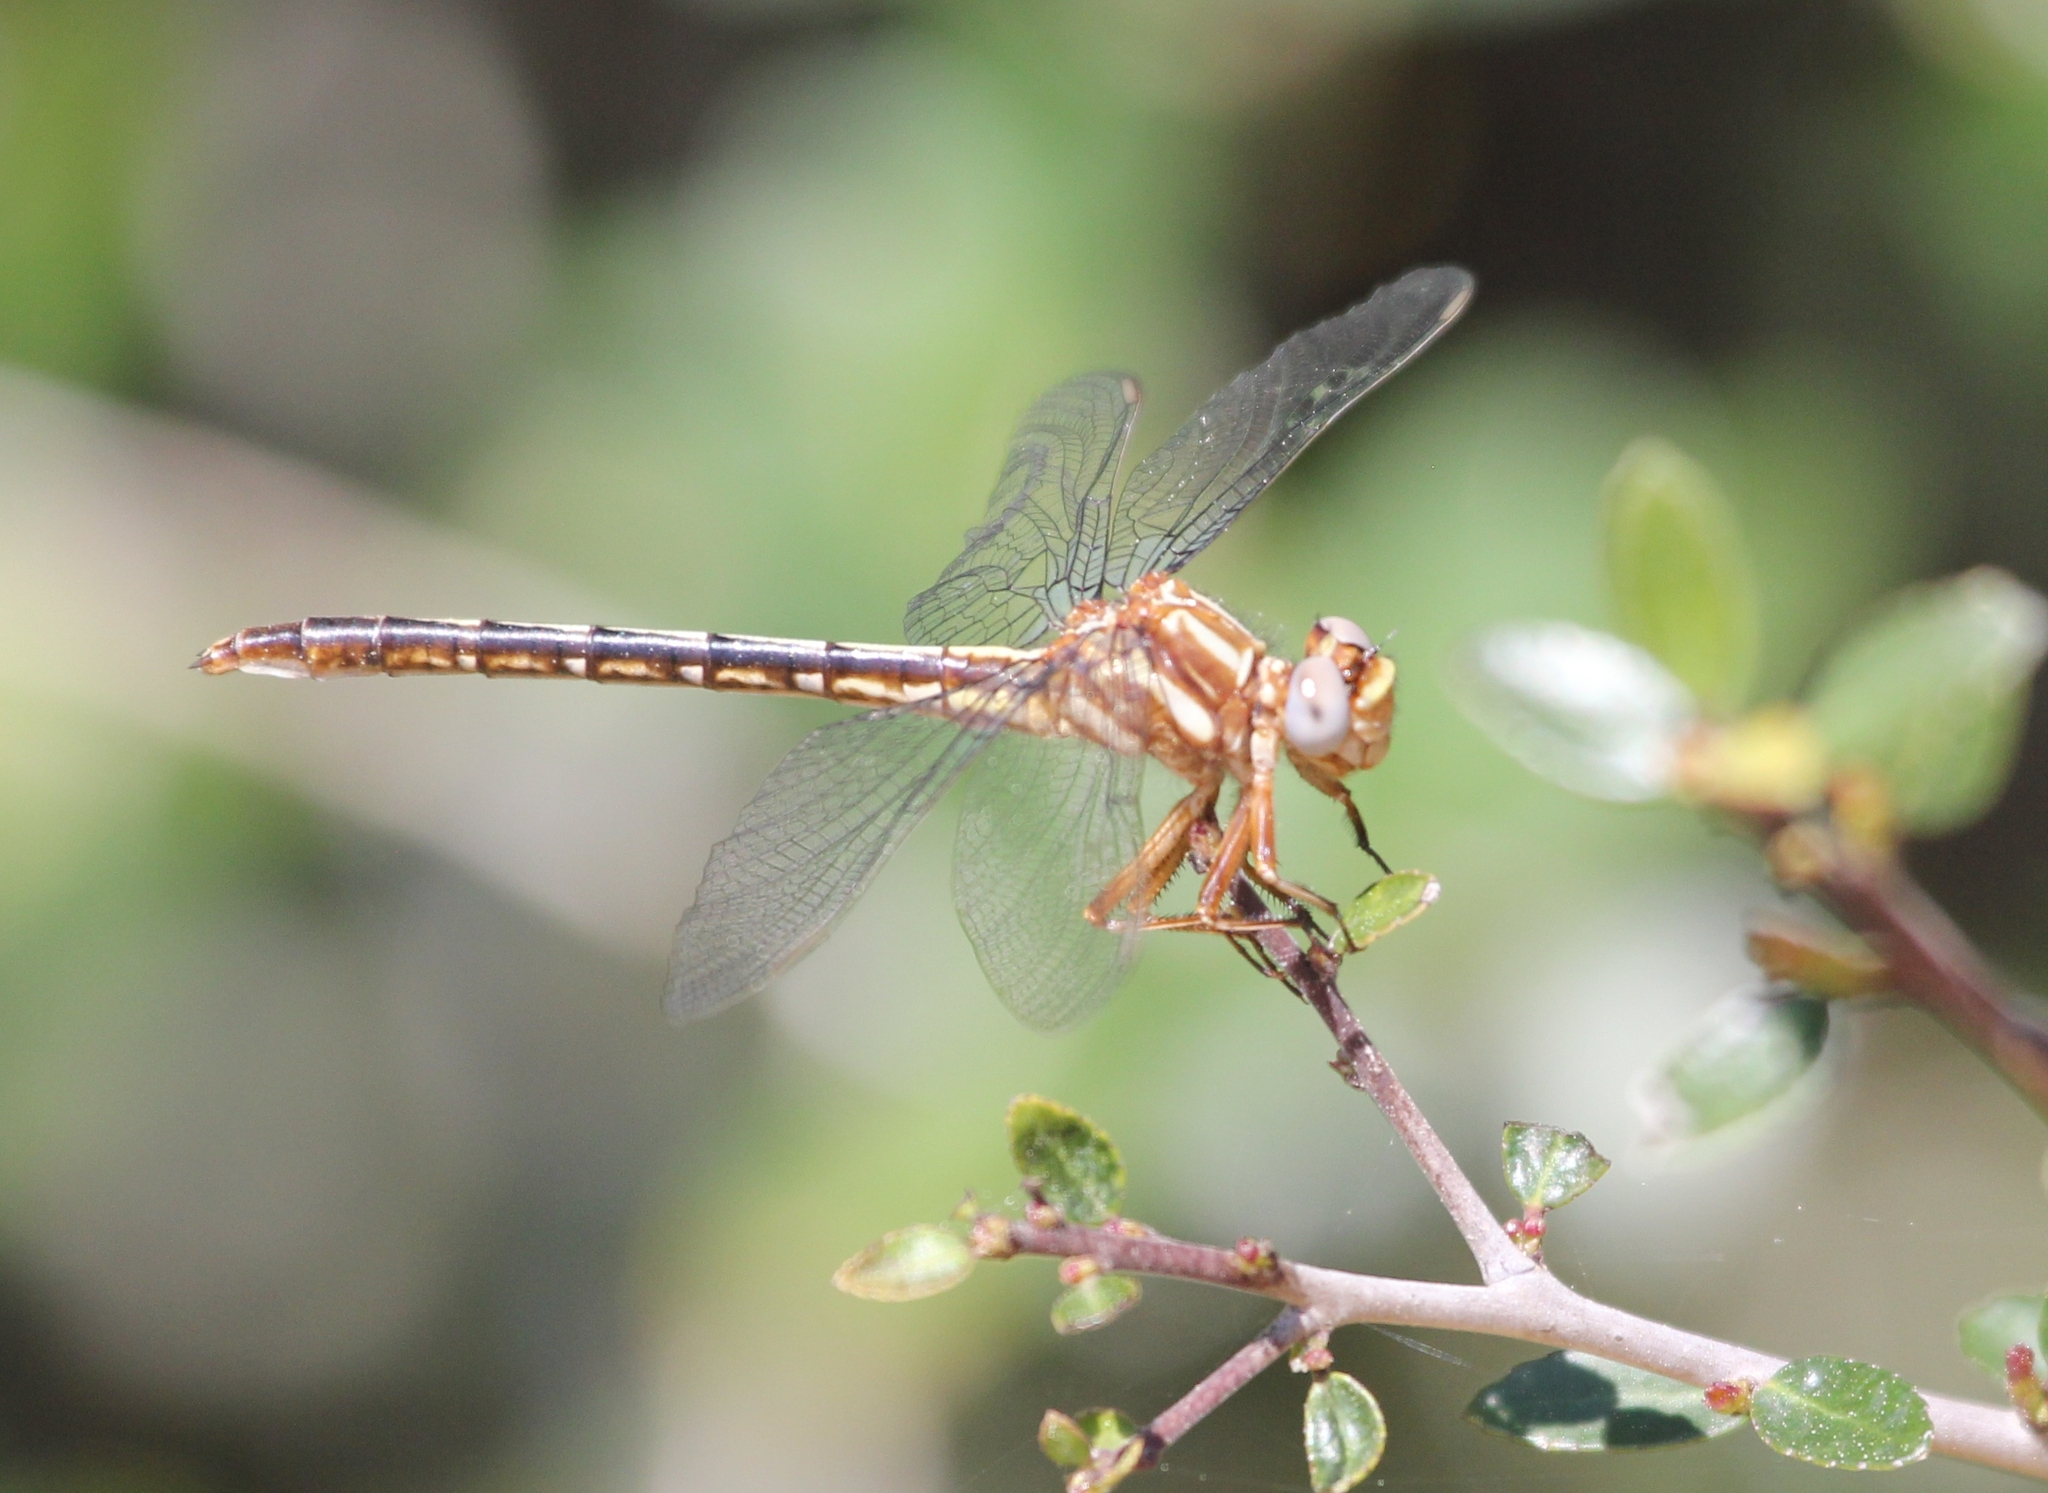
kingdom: Animalia
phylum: Arthropoda
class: Insecta
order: Odonata
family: Gomphidae
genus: Phanogomphus
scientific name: Phanogomphus lividus
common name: Ashy clubtail
